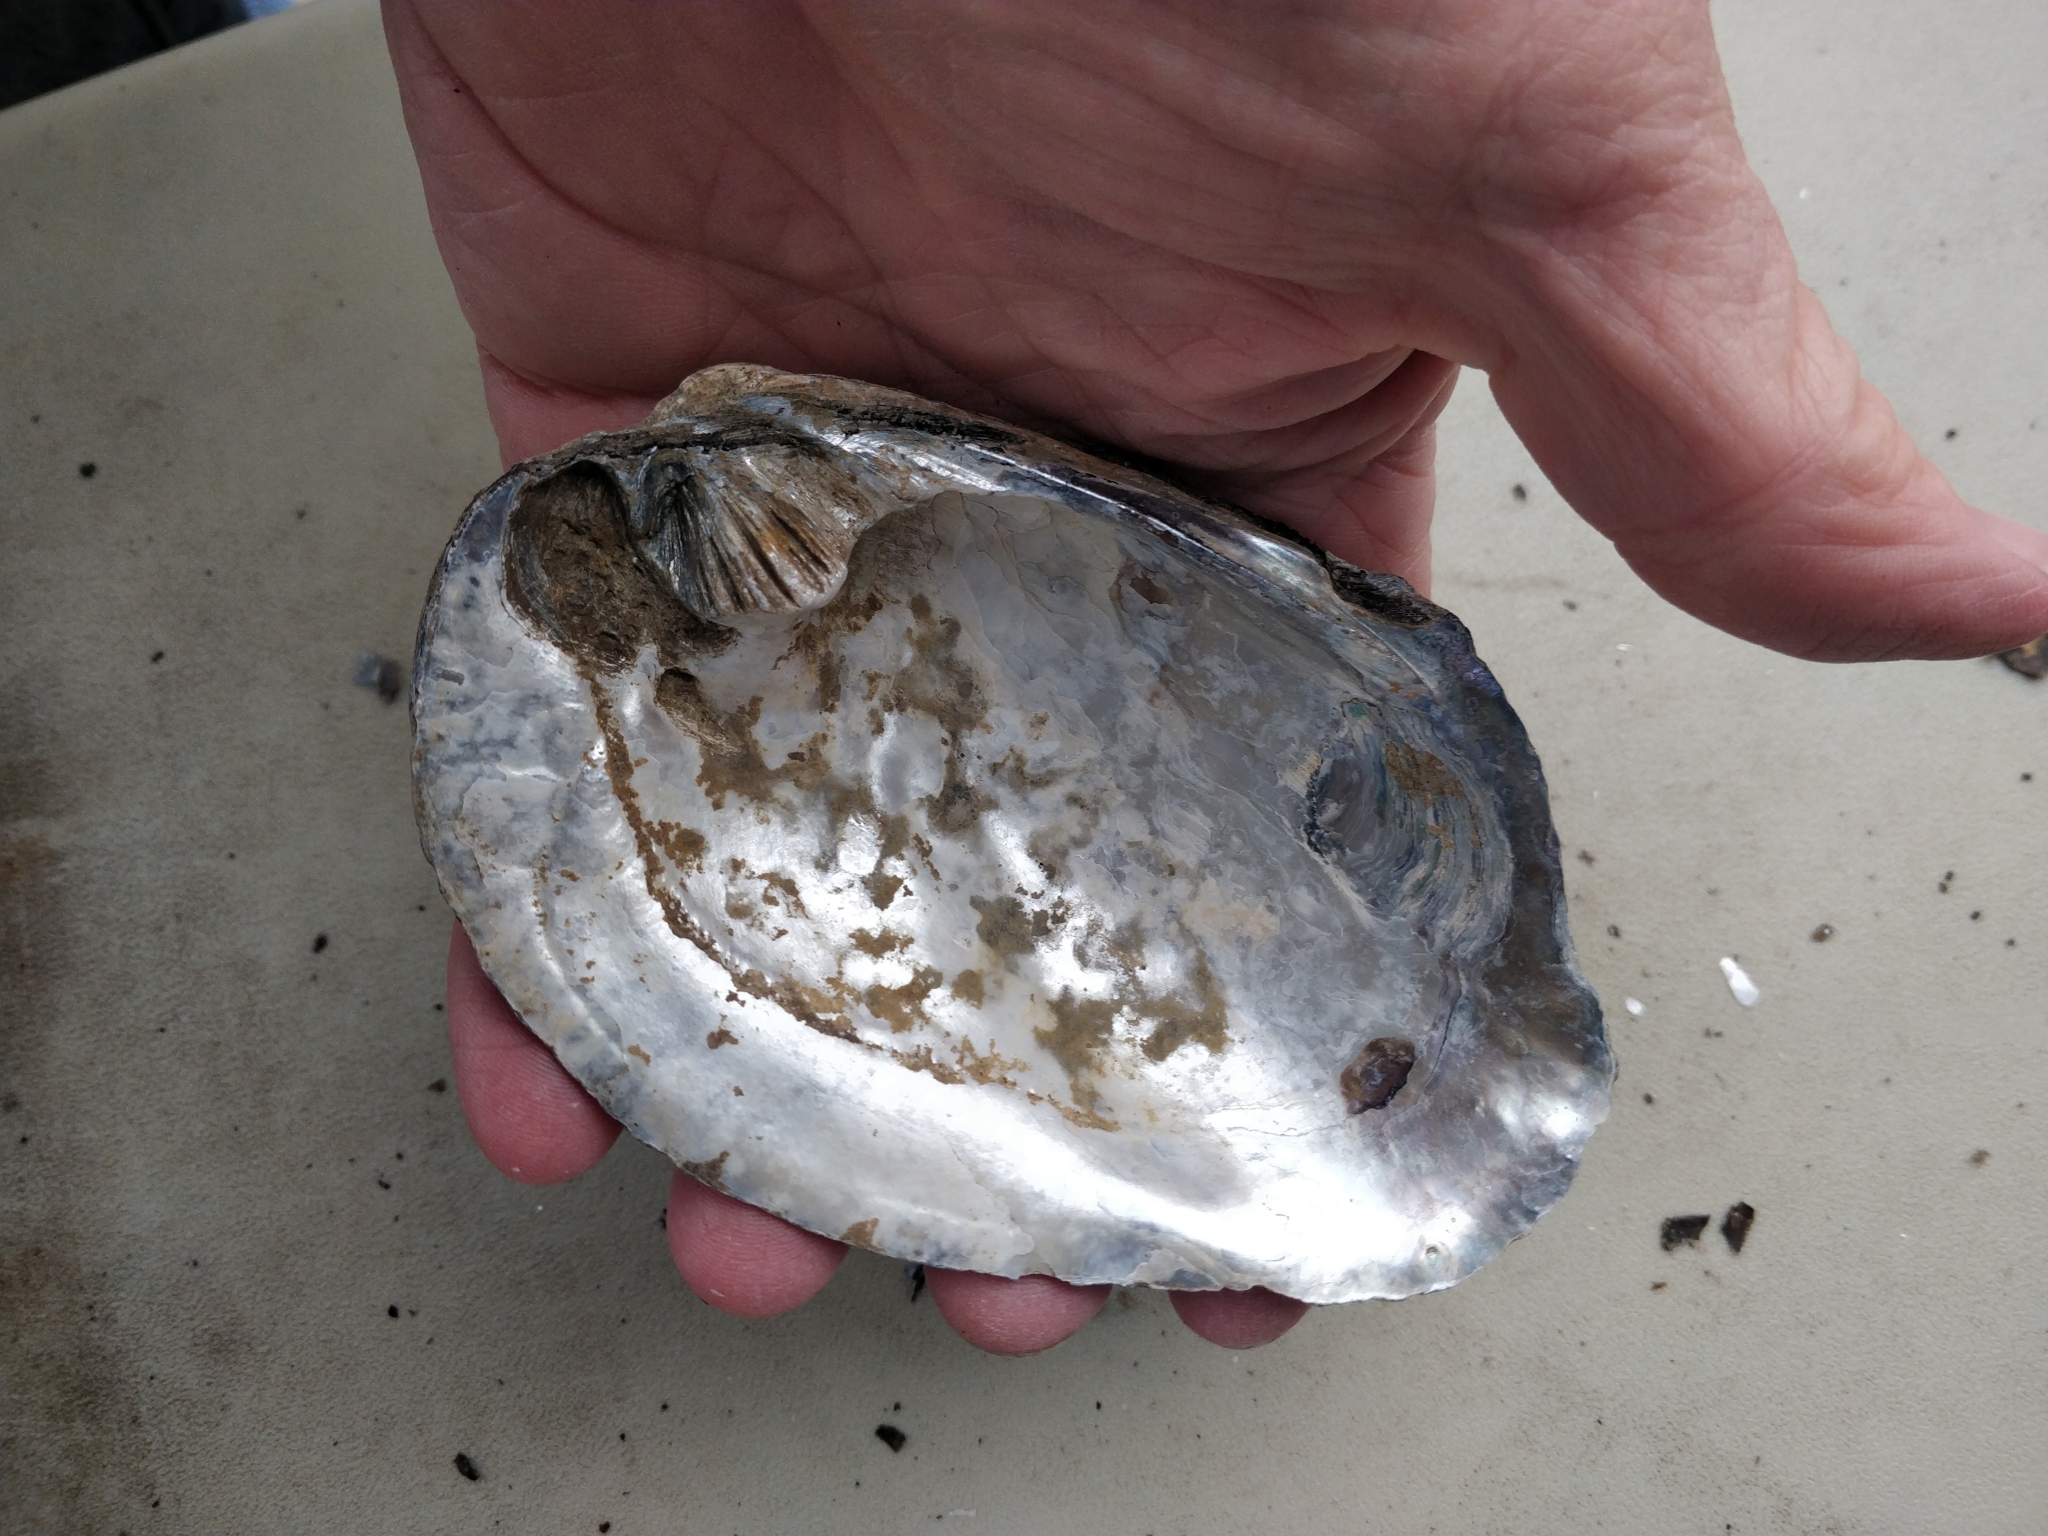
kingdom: Animalia
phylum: Mollusca
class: Bivalvia
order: Unionida
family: Unionidae
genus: Amblema
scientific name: Amblema plicata
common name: Threeridge
